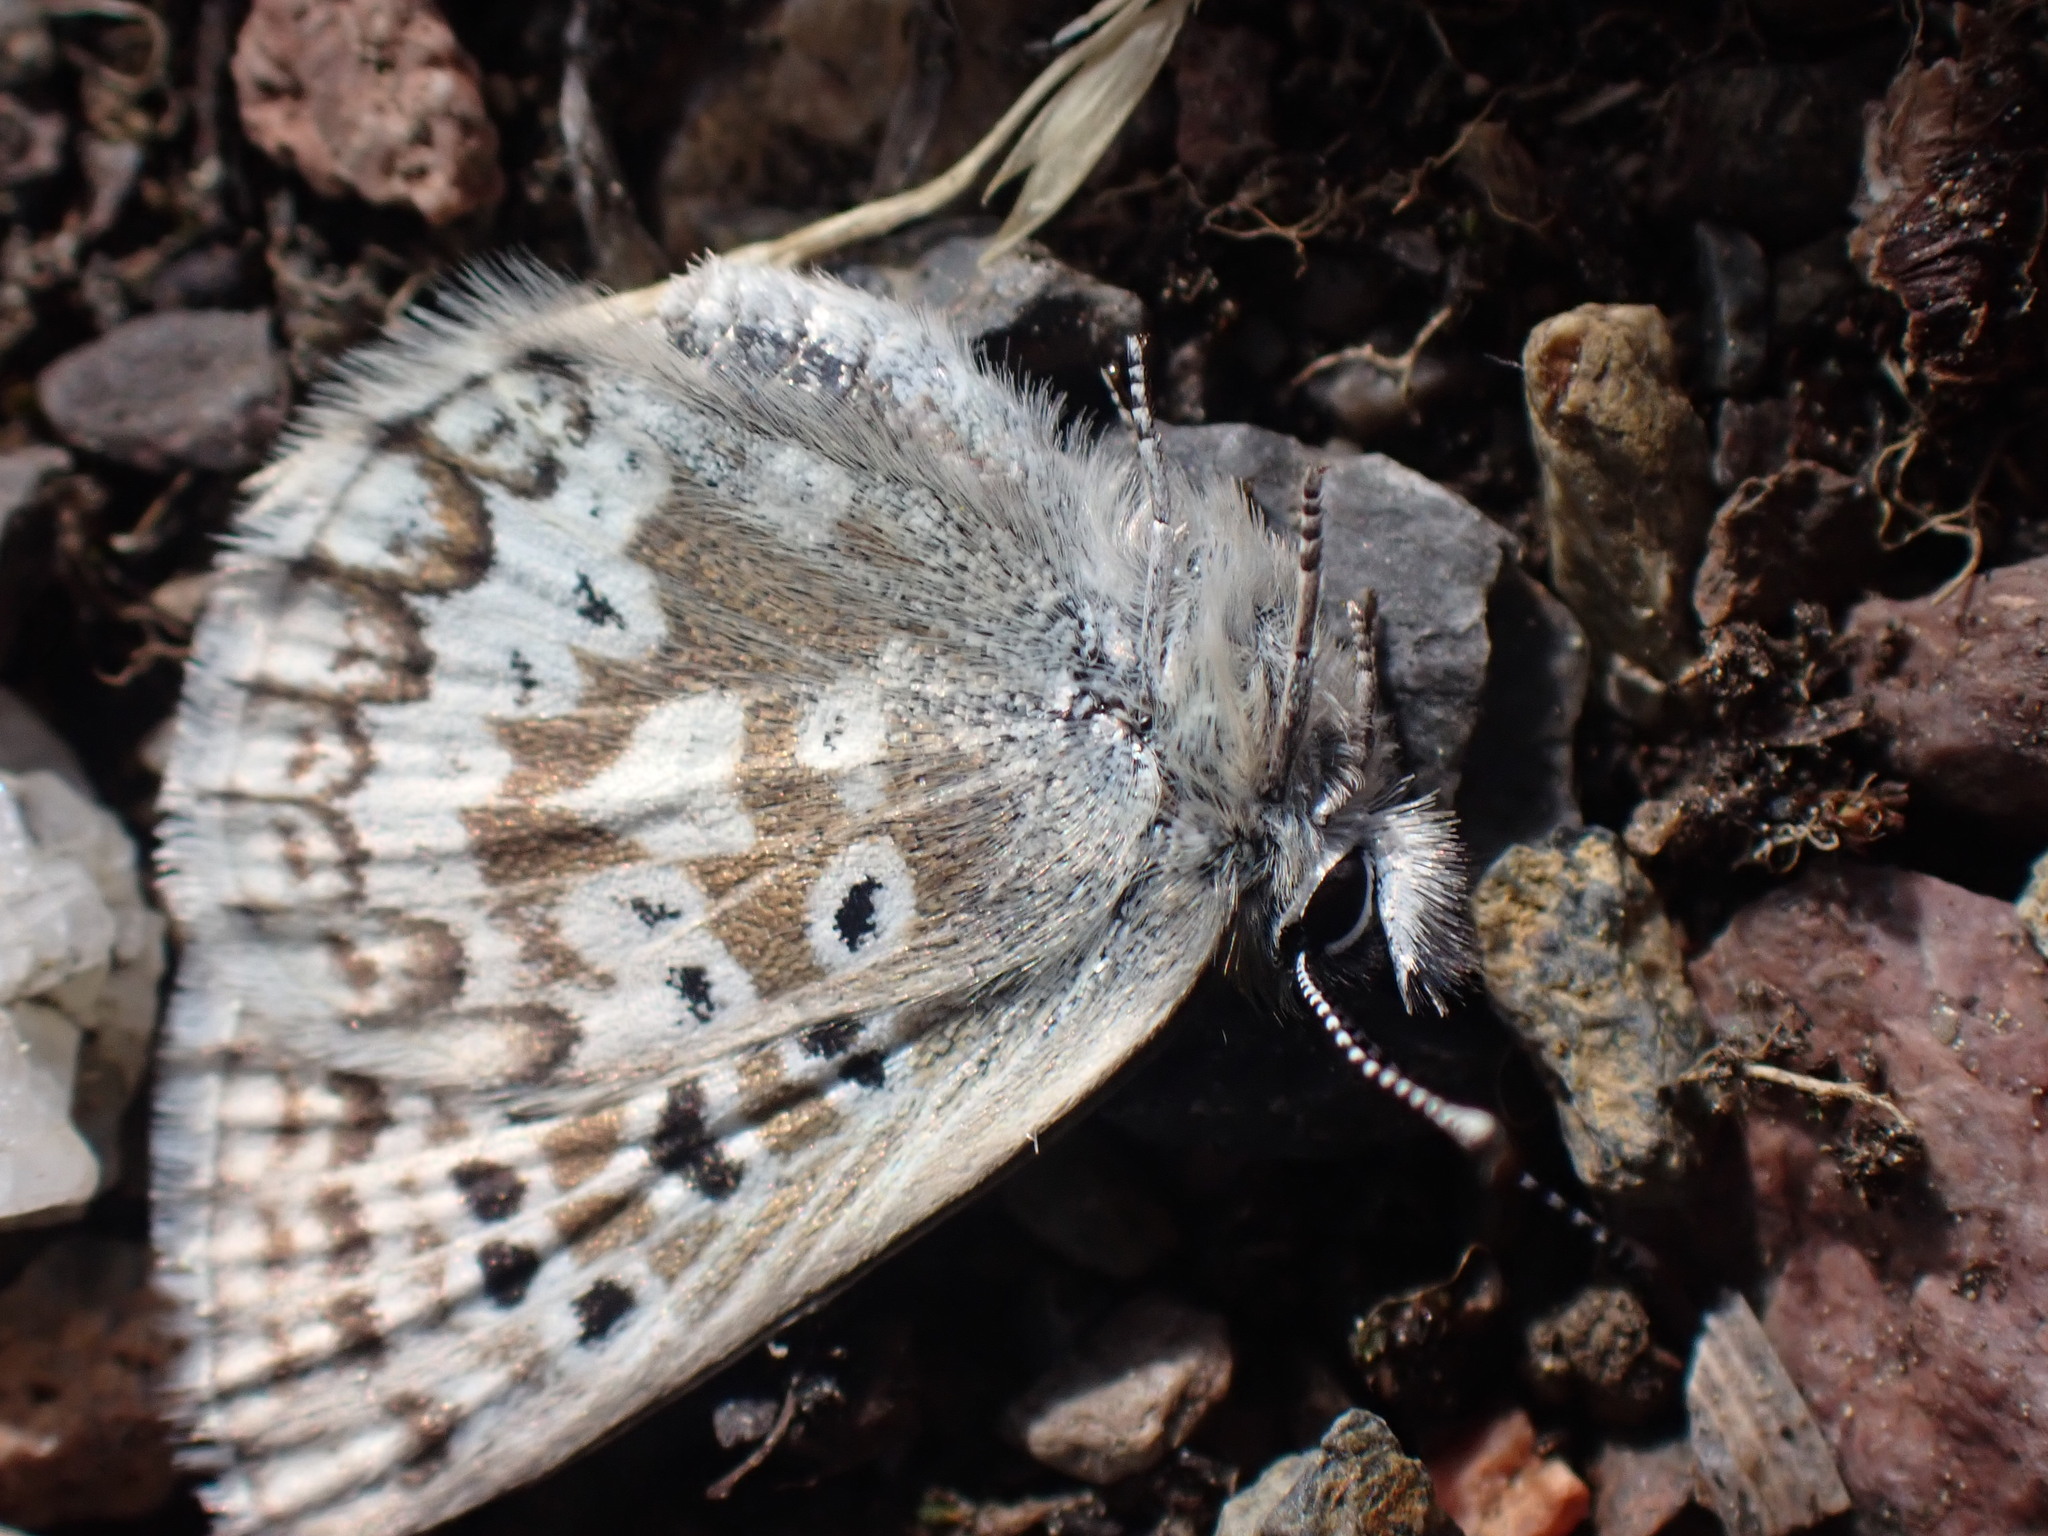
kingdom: Animalia
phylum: Arthropoda
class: Insecta
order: Lepidoptera
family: Lycaenidae
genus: Agriades
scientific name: Agriades glandon
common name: Glandon blue
